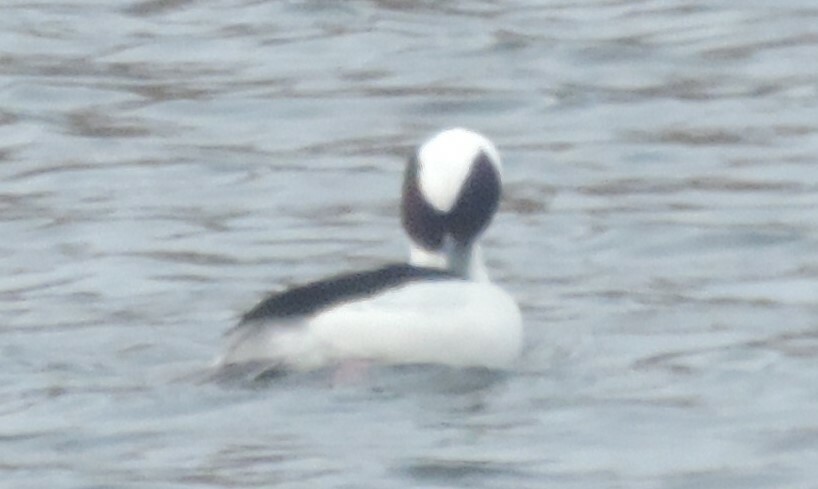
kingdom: Animalia
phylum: Chordata
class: Aves
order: Anseriformes
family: Anatidae
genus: Bucephala
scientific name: Bucephala albeola
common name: Bufflehead
